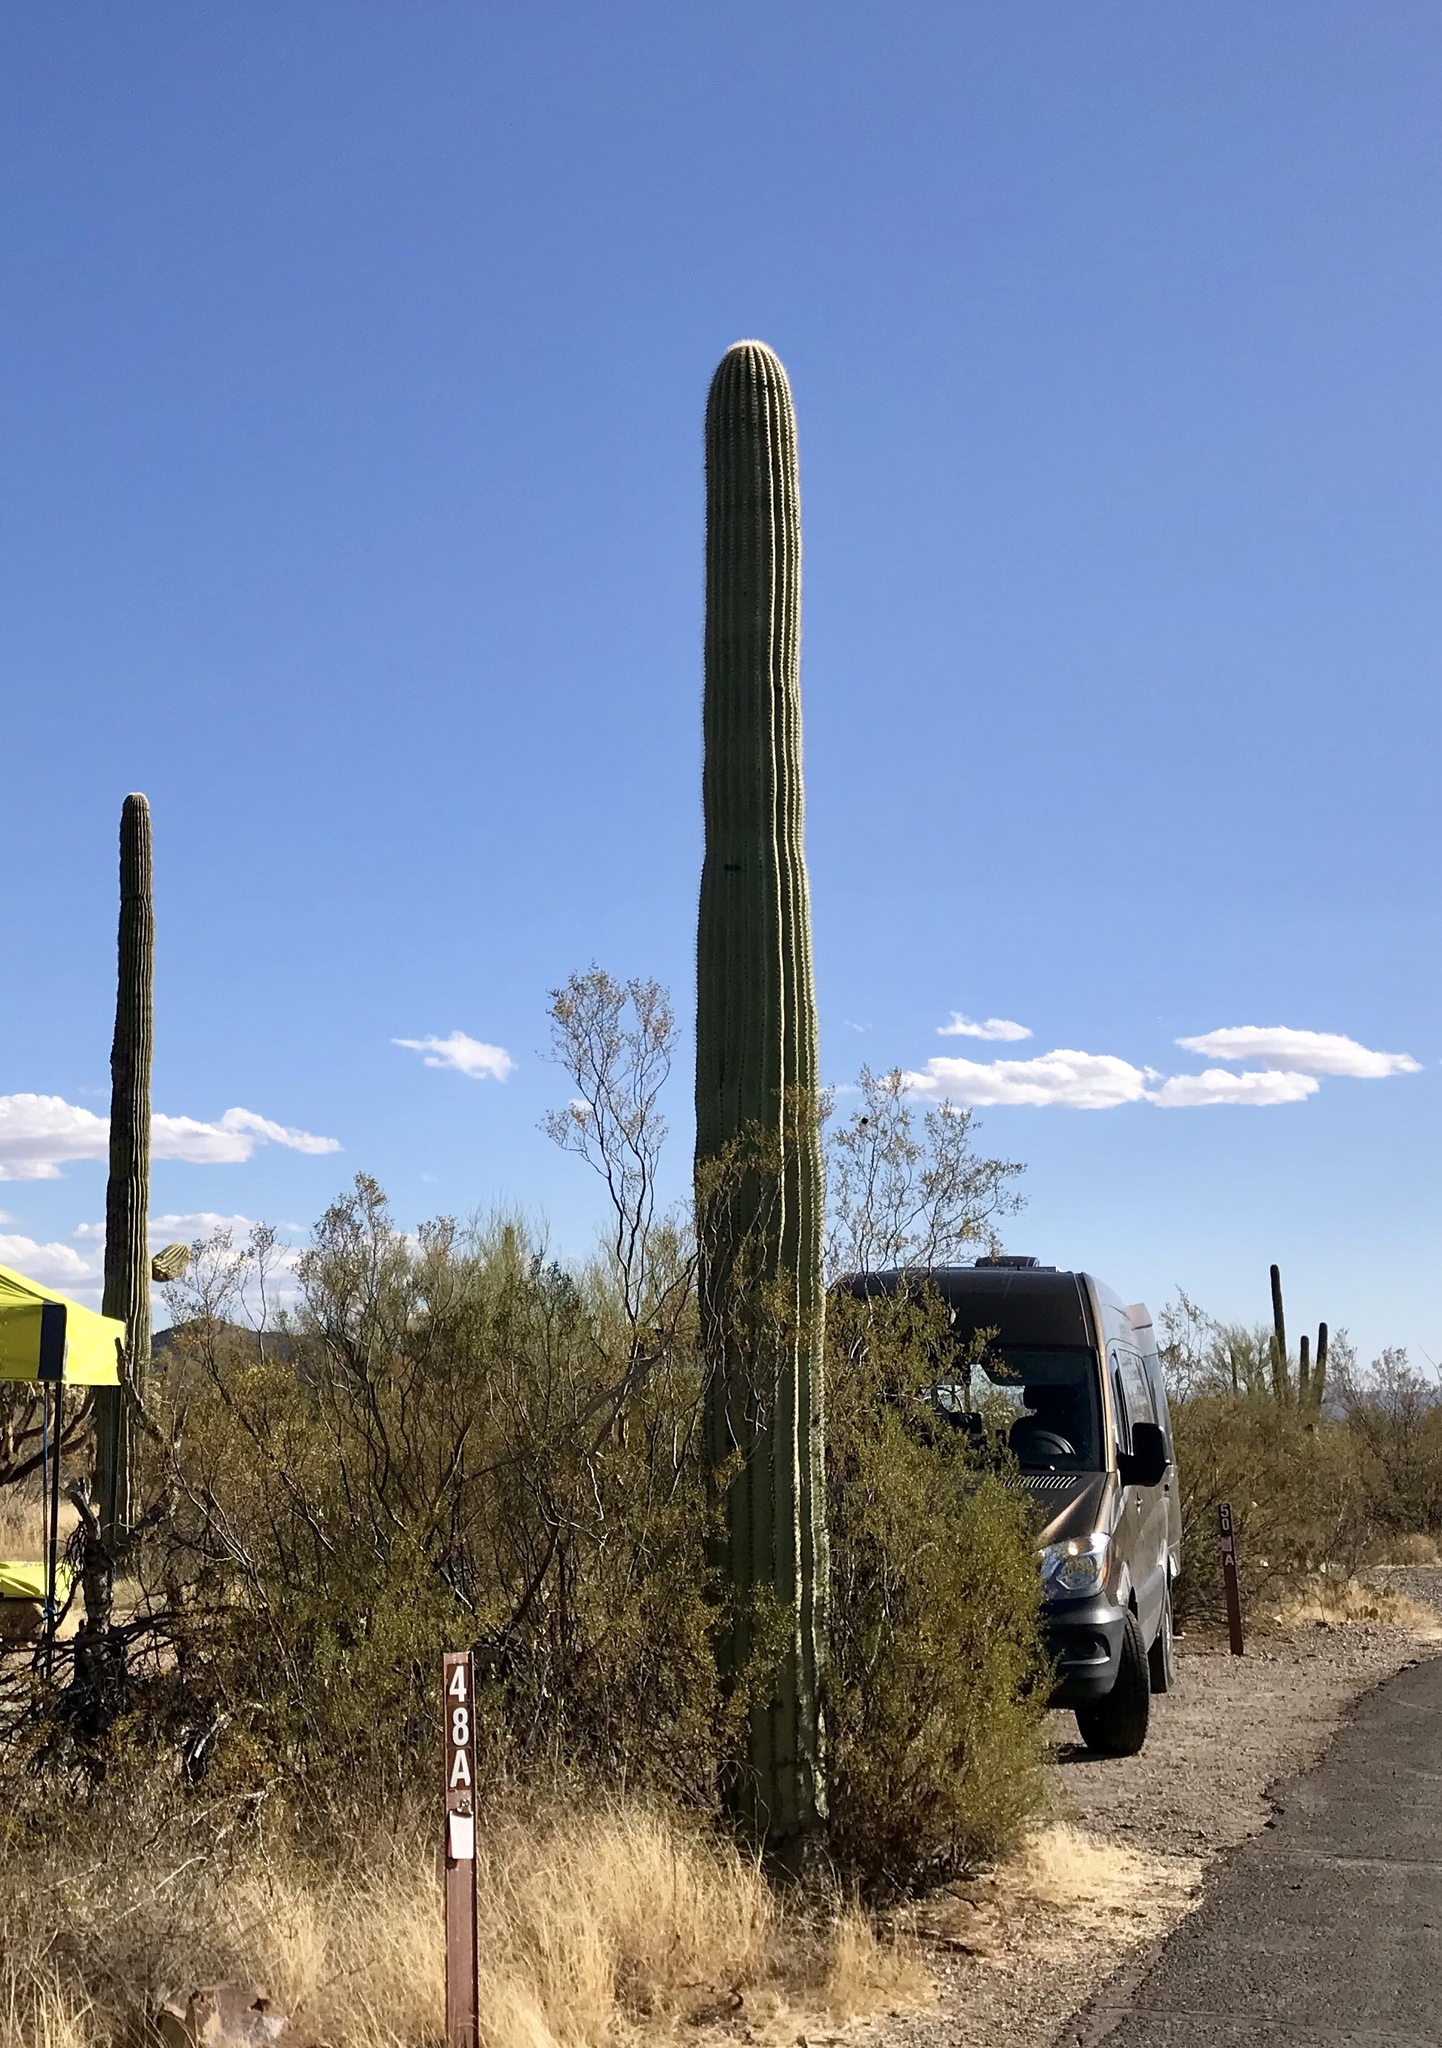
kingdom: Plantae
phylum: Tracheophyta
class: Magnoliopsida
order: Caryophyllales
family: Cactaceae
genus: Carnegiea
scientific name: Carnegiea gigantea
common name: Saguaro
